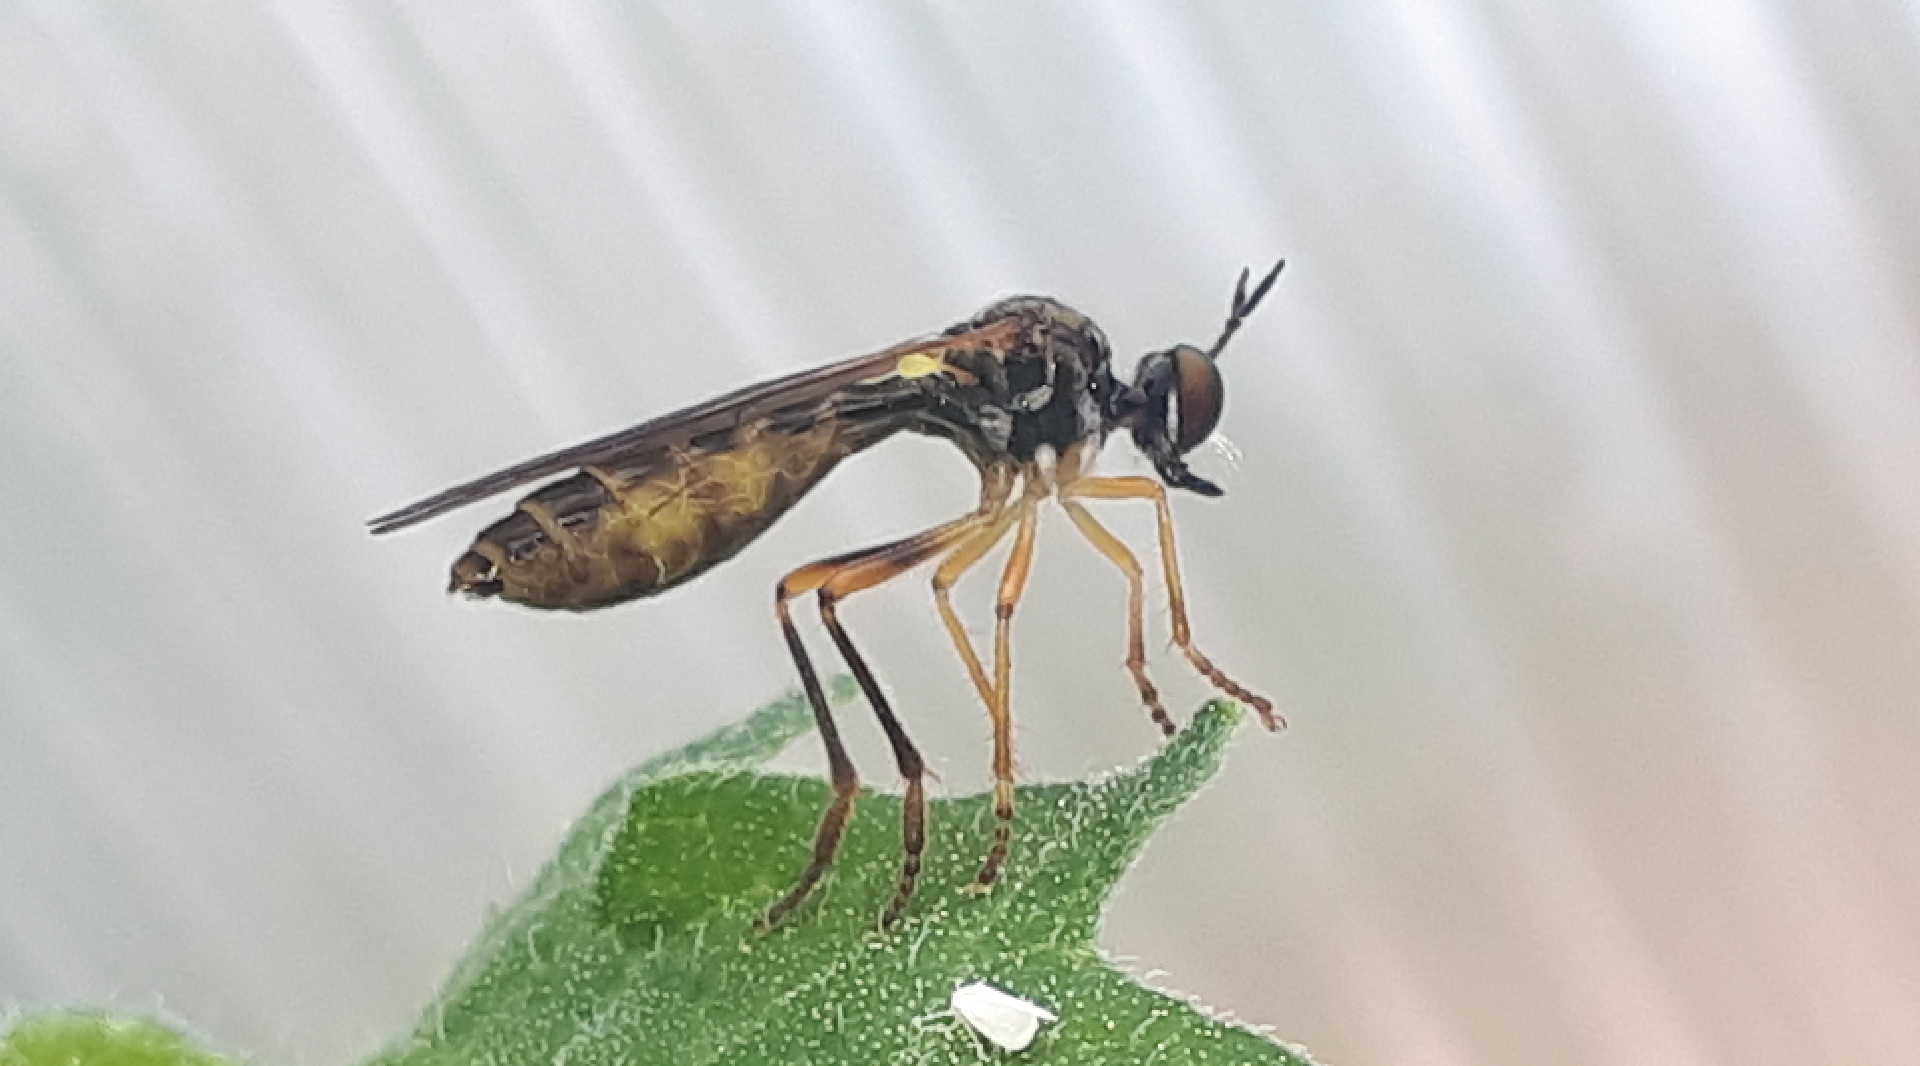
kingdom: Animalia
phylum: Arthropoda
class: Insecta
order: Diptera
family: Asilidae
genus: Dioctria
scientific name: Dioctria linearis
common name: Small yellow-legged robberfly
